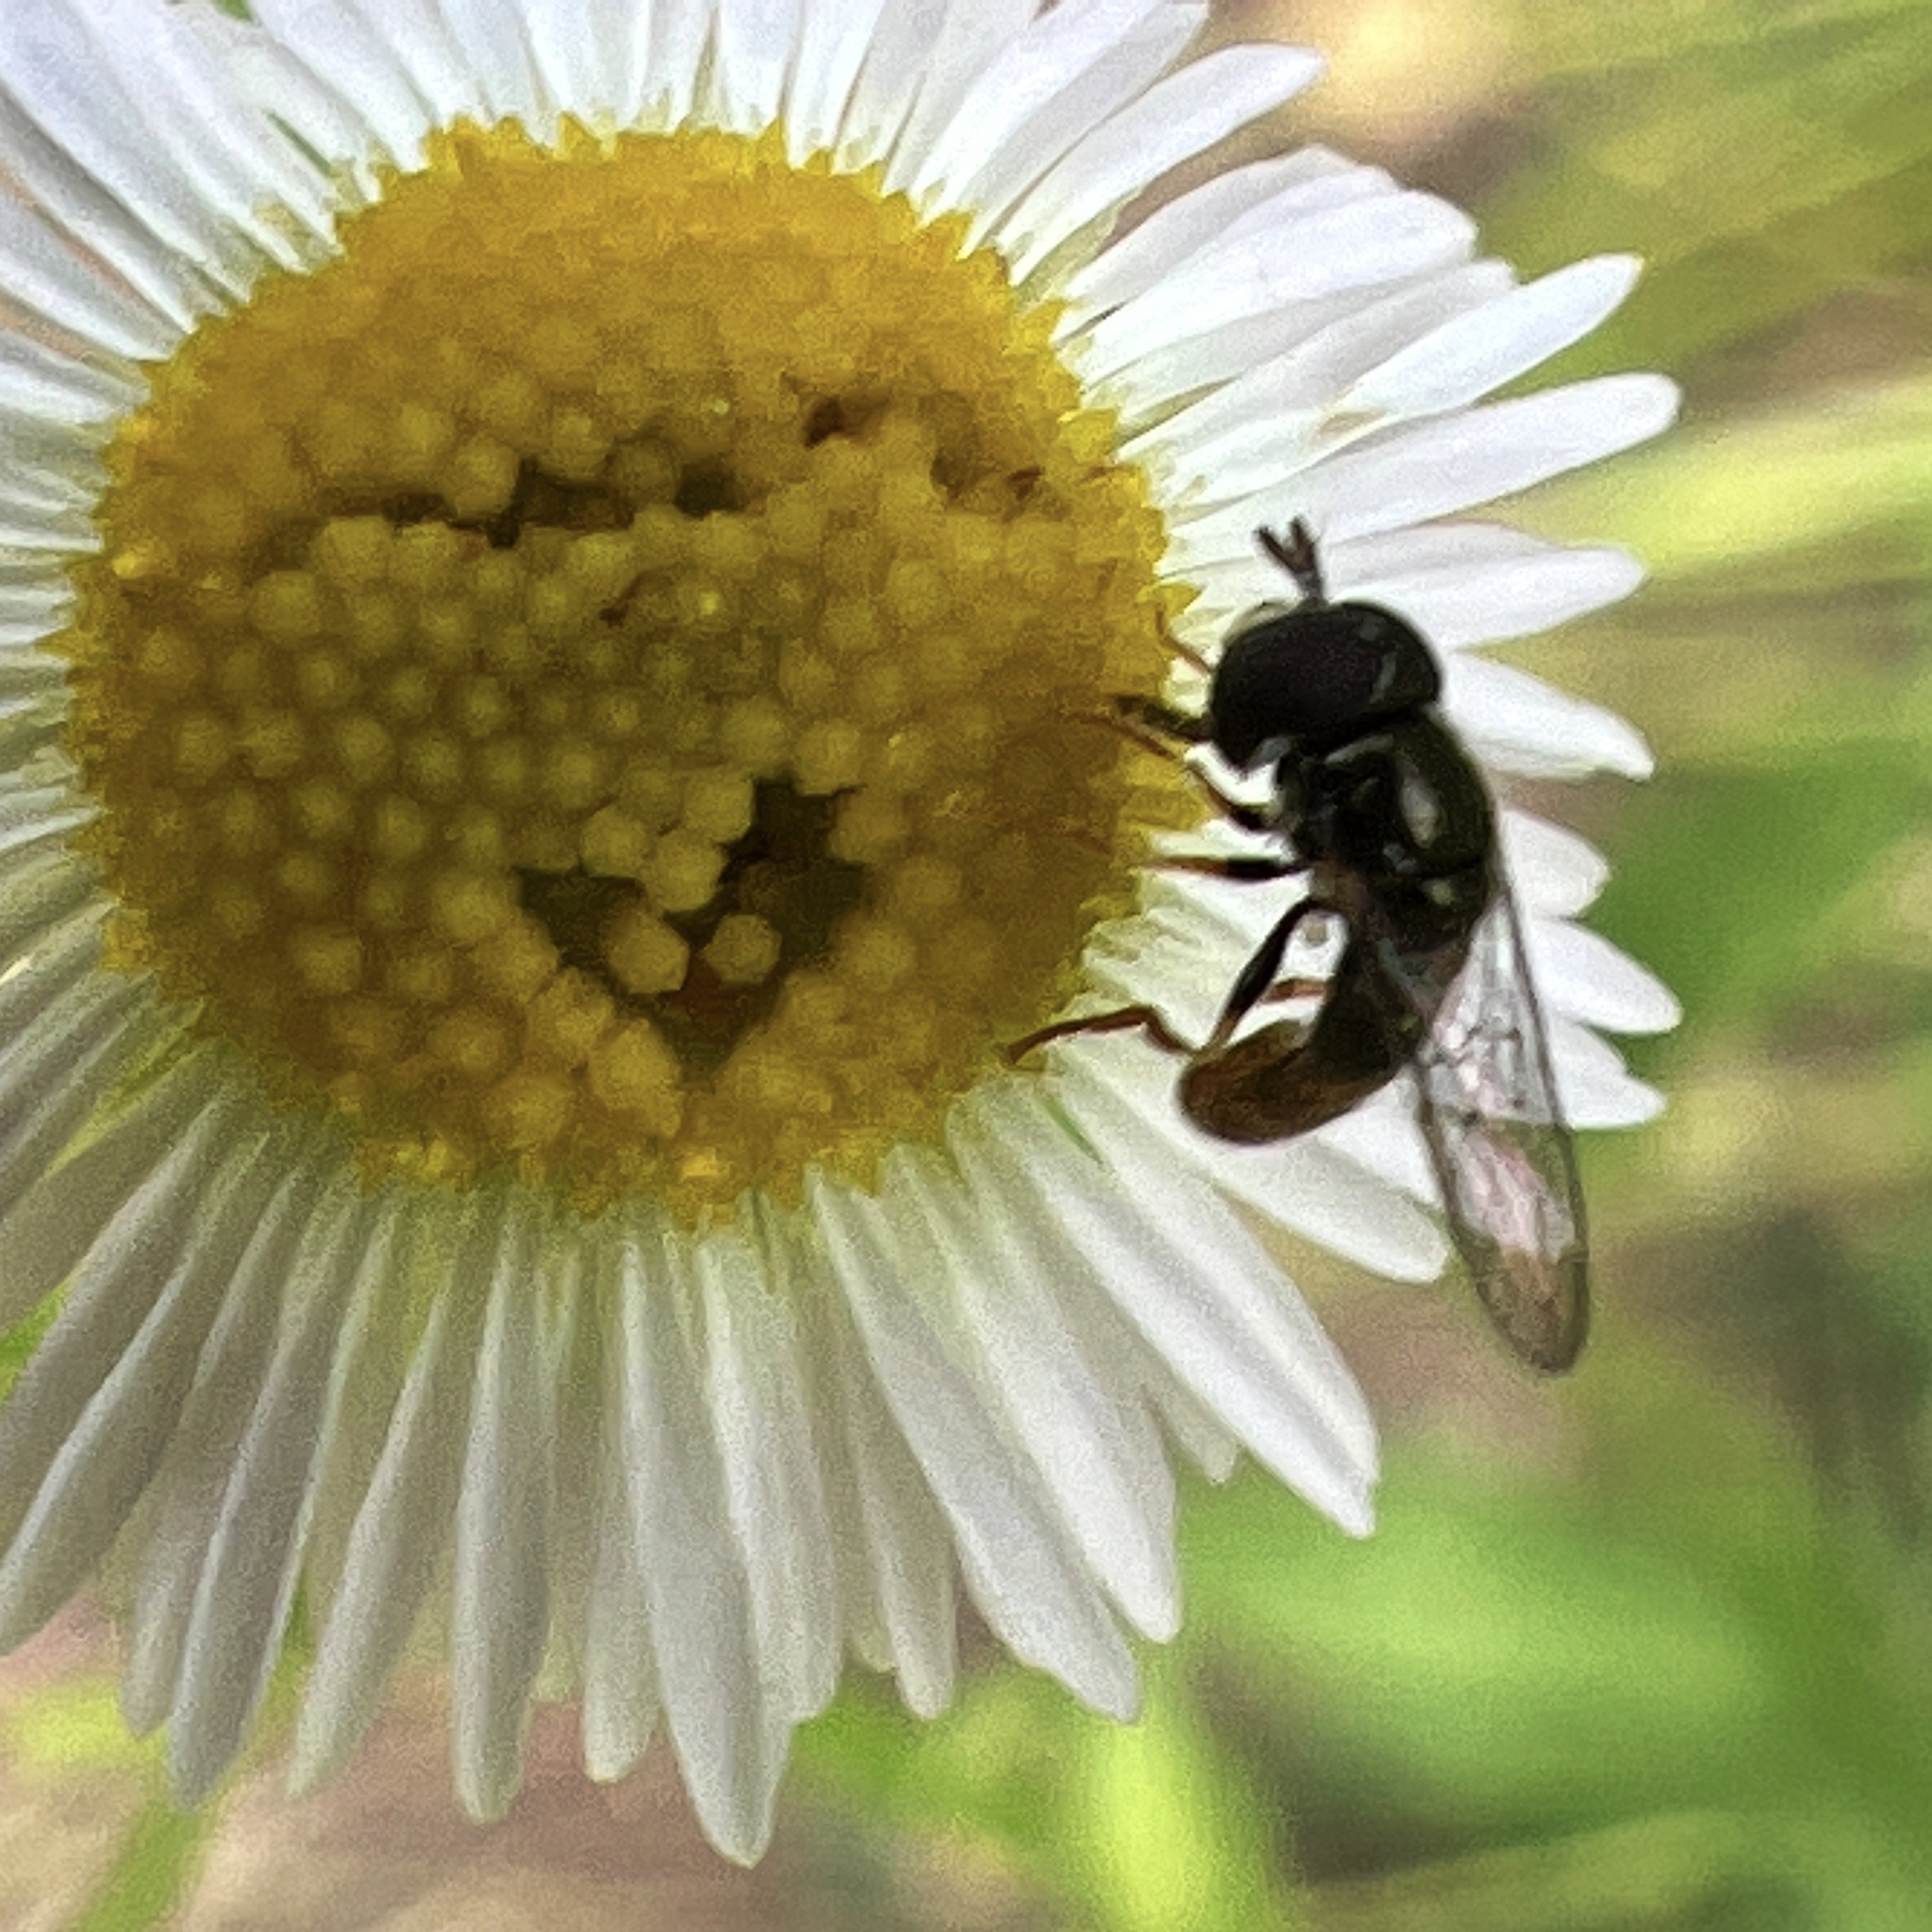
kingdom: Animalia
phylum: Arthropoda
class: Insecta
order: Diptera
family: Syrphidae
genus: Paragus
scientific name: Paragus haemorrhous
